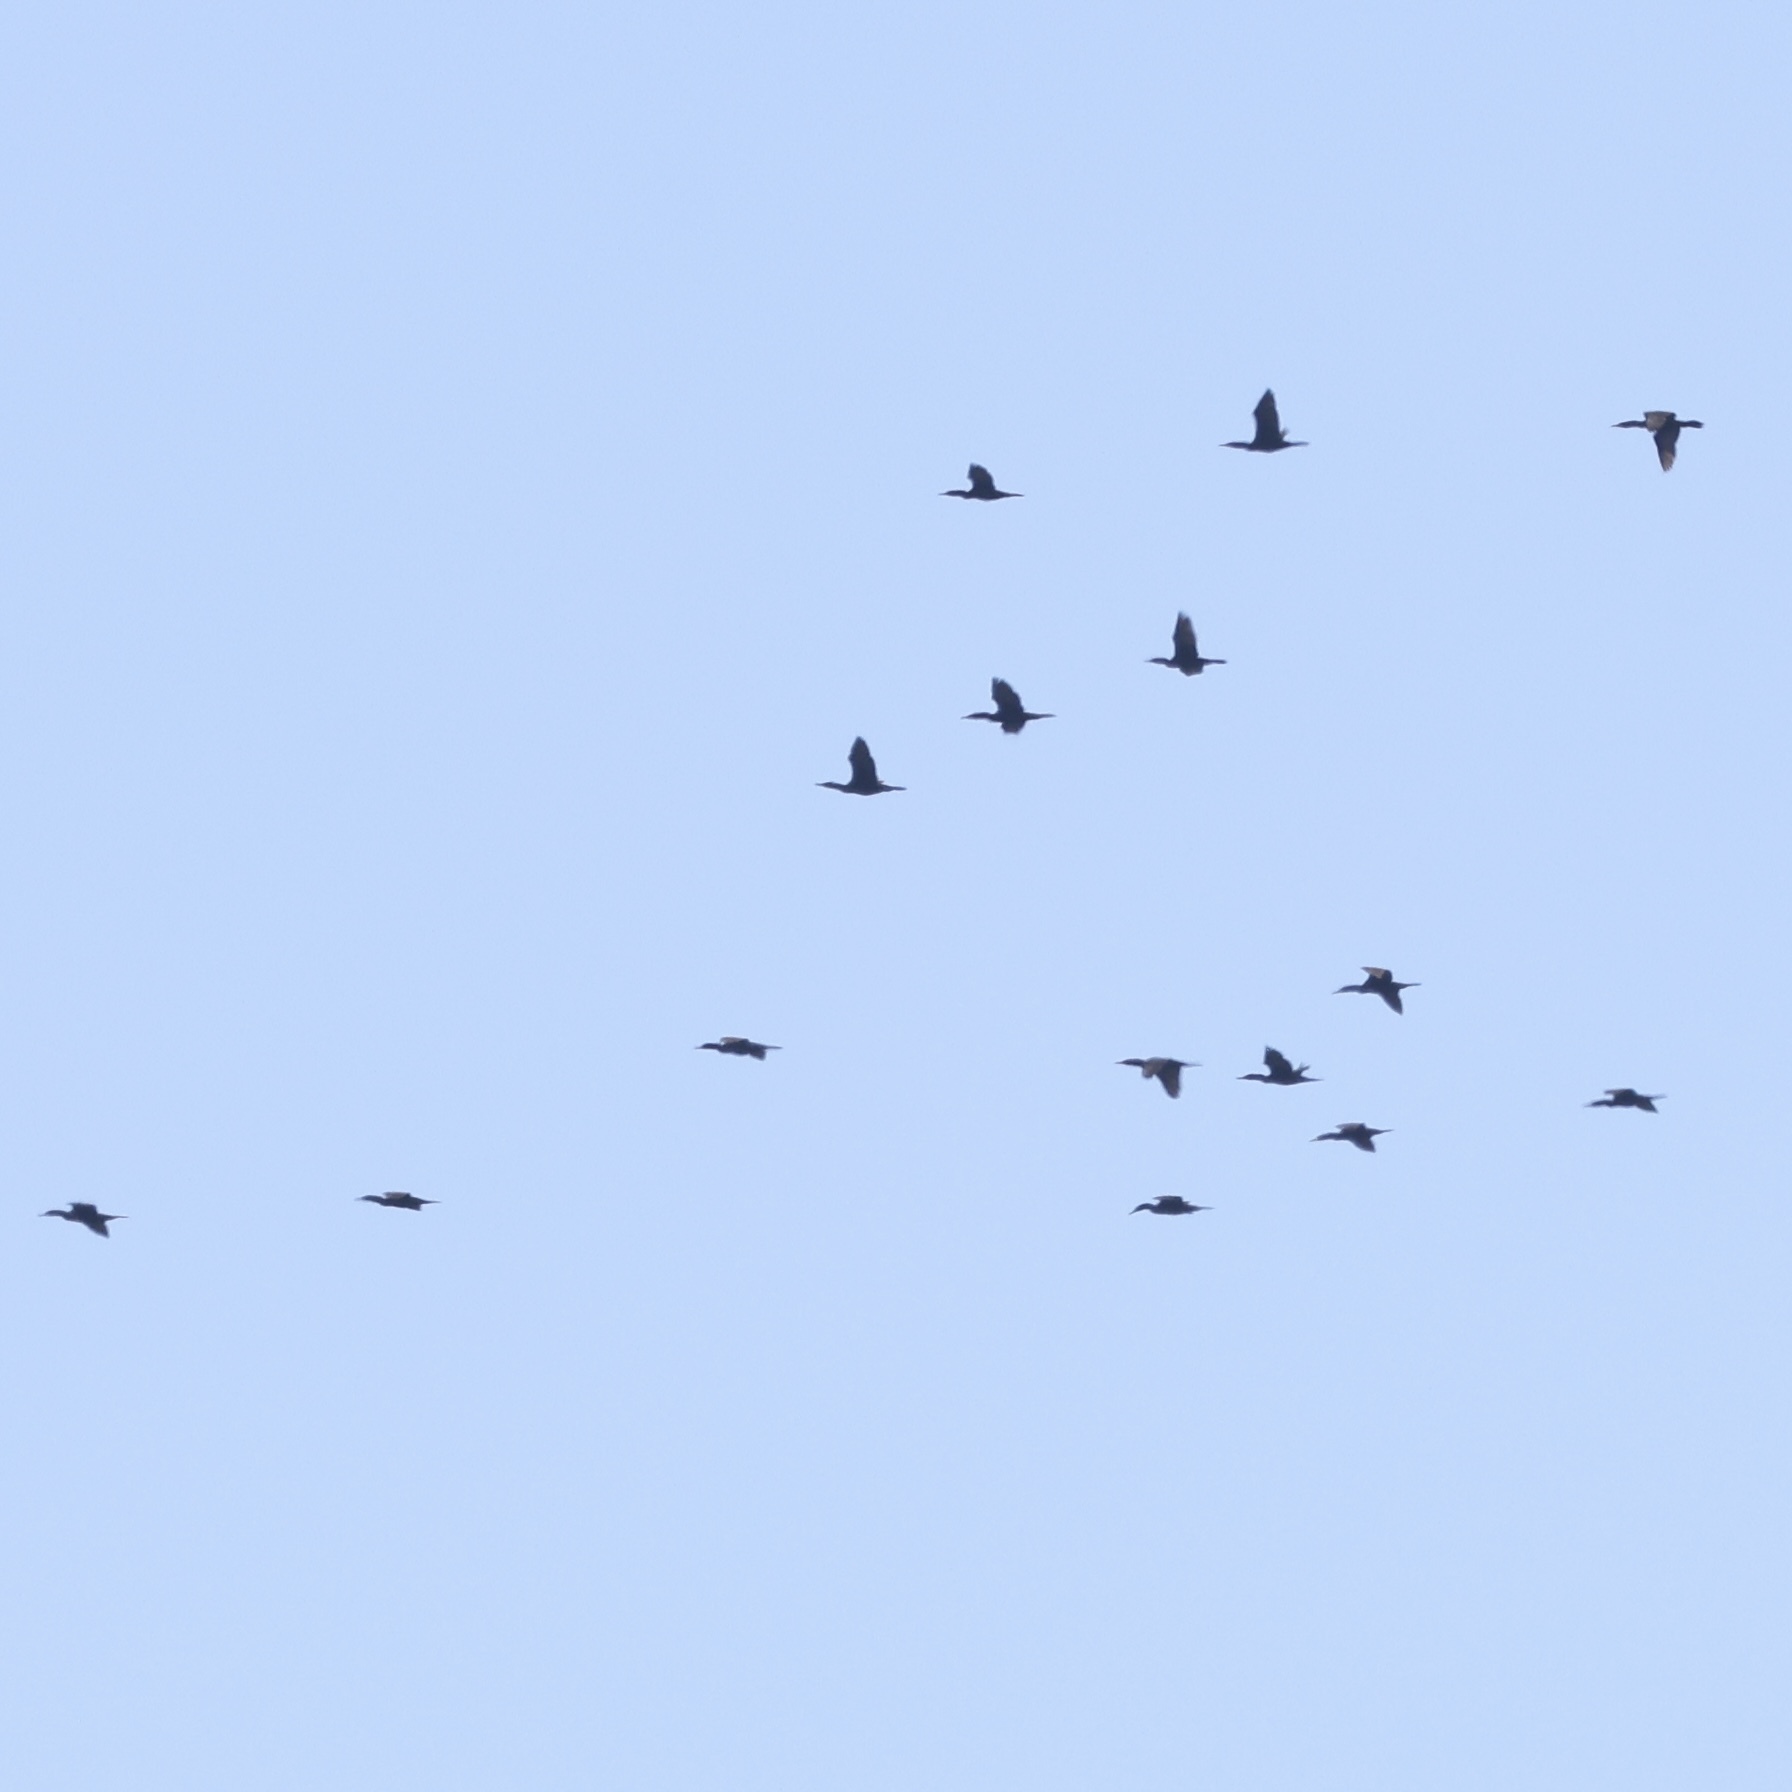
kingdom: Animalia
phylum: Chordata
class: Aves
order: Suliformes
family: Phalacrocoracidae
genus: Phalacrocorax
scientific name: Phalacrocorax auritus
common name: Double-crested cormorant
